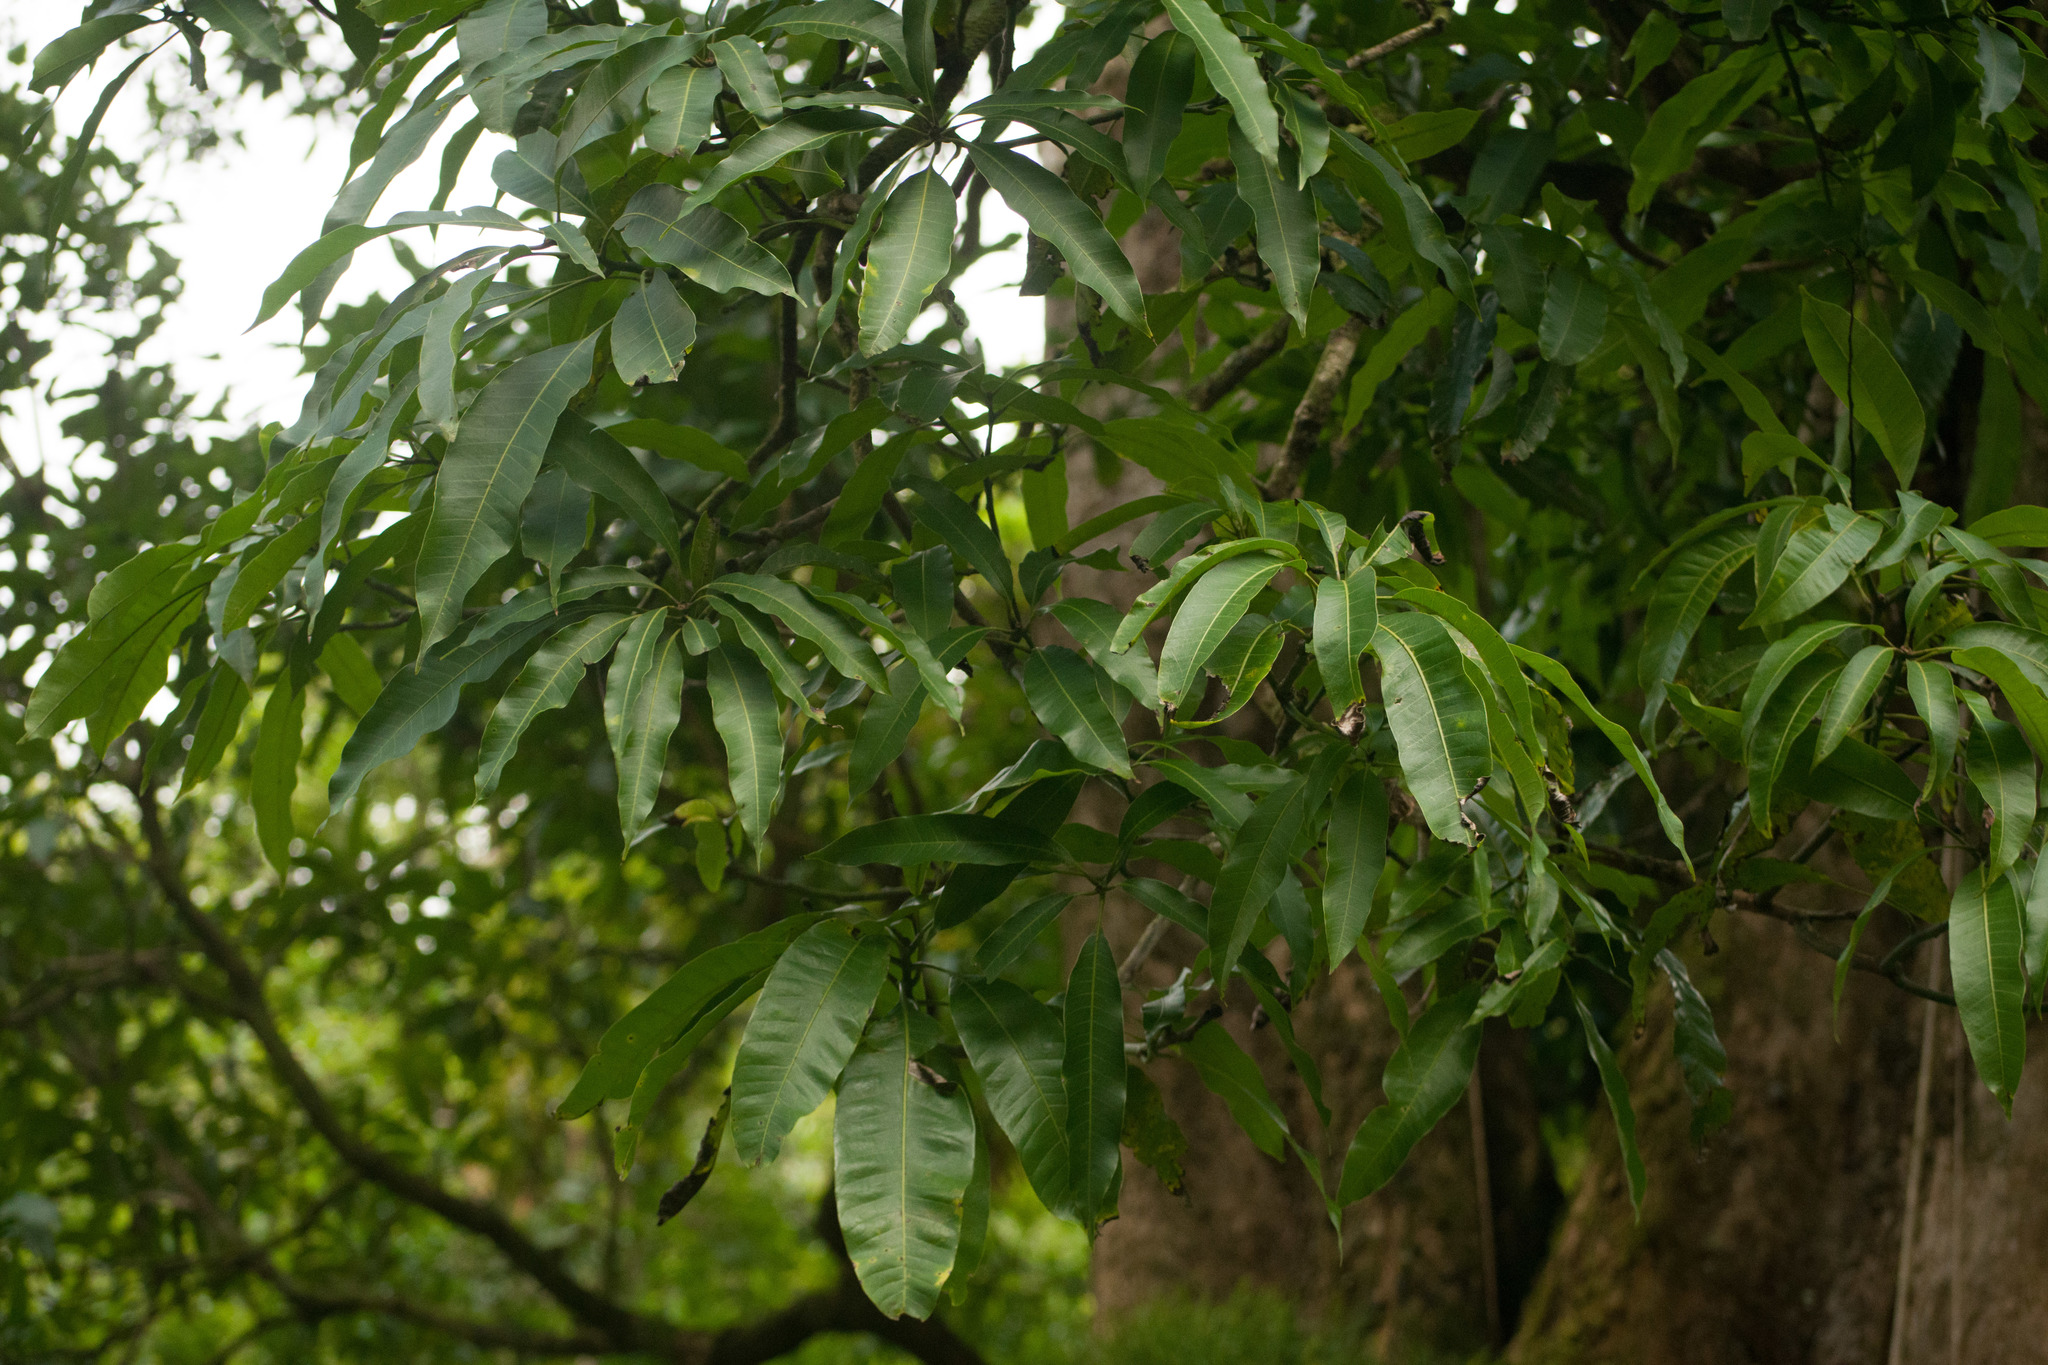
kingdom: Plantae
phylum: Tracheophyta
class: Magnoliopsida
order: Sapindales
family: Anacardiaceae
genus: Mangifera
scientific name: Mangifera indica
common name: Mango
